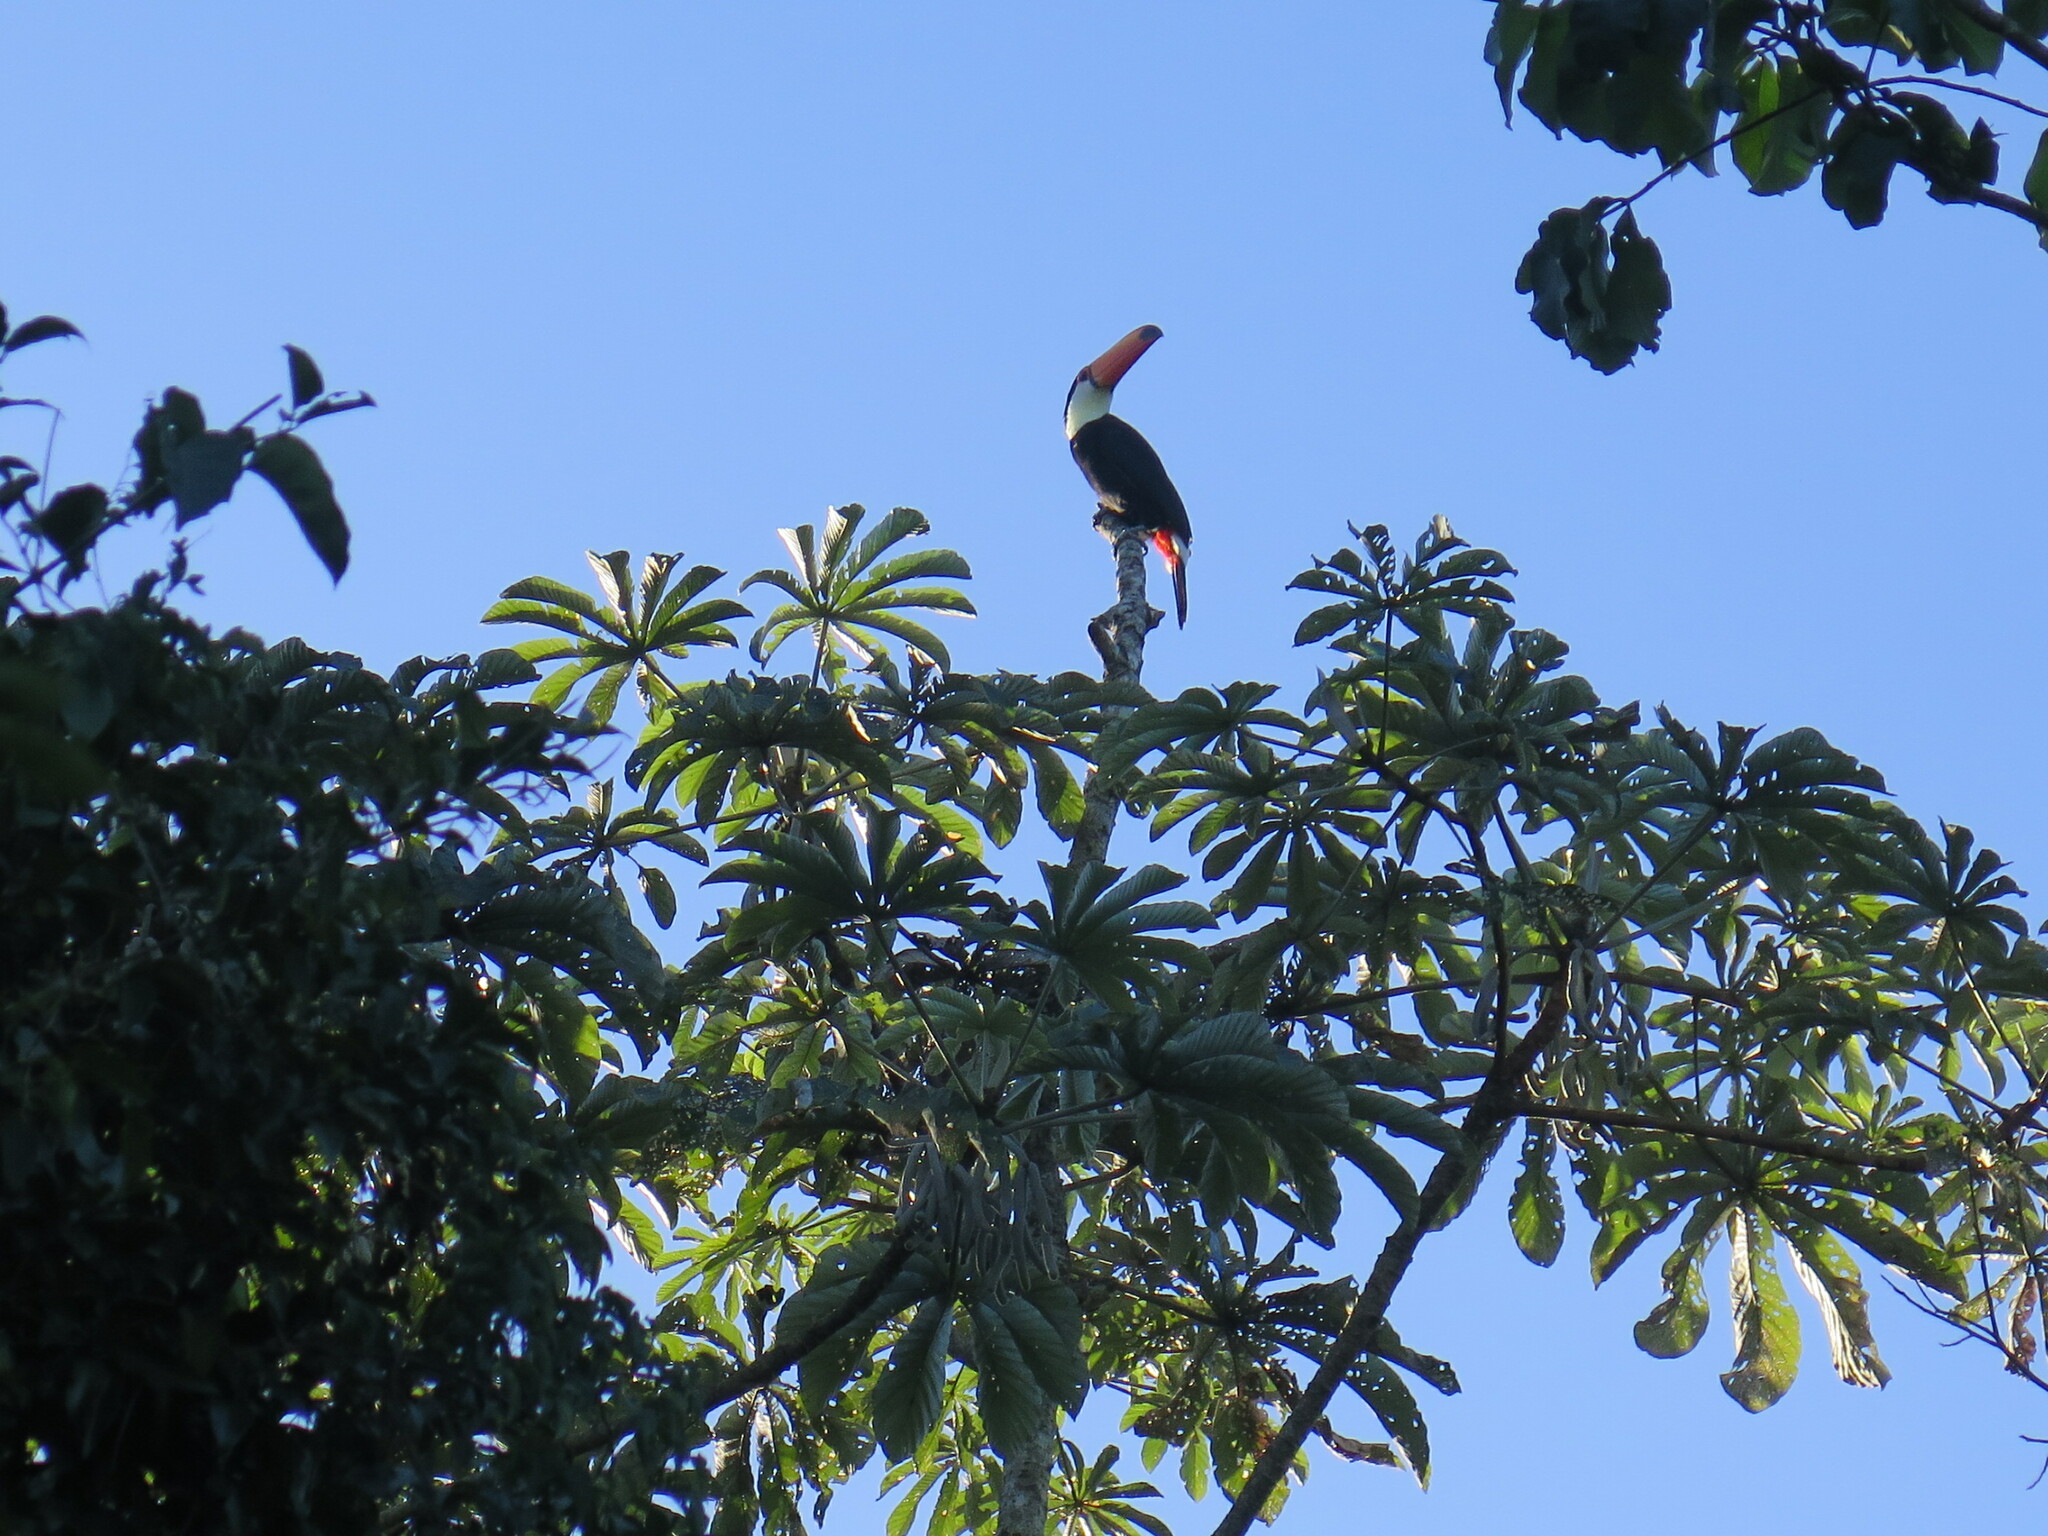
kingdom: Animalia
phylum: Chordata
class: Aves
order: Piciformes
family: Ramphastidae
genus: Ramphastos
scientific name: Ramphastos toco
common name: Toco toucan
